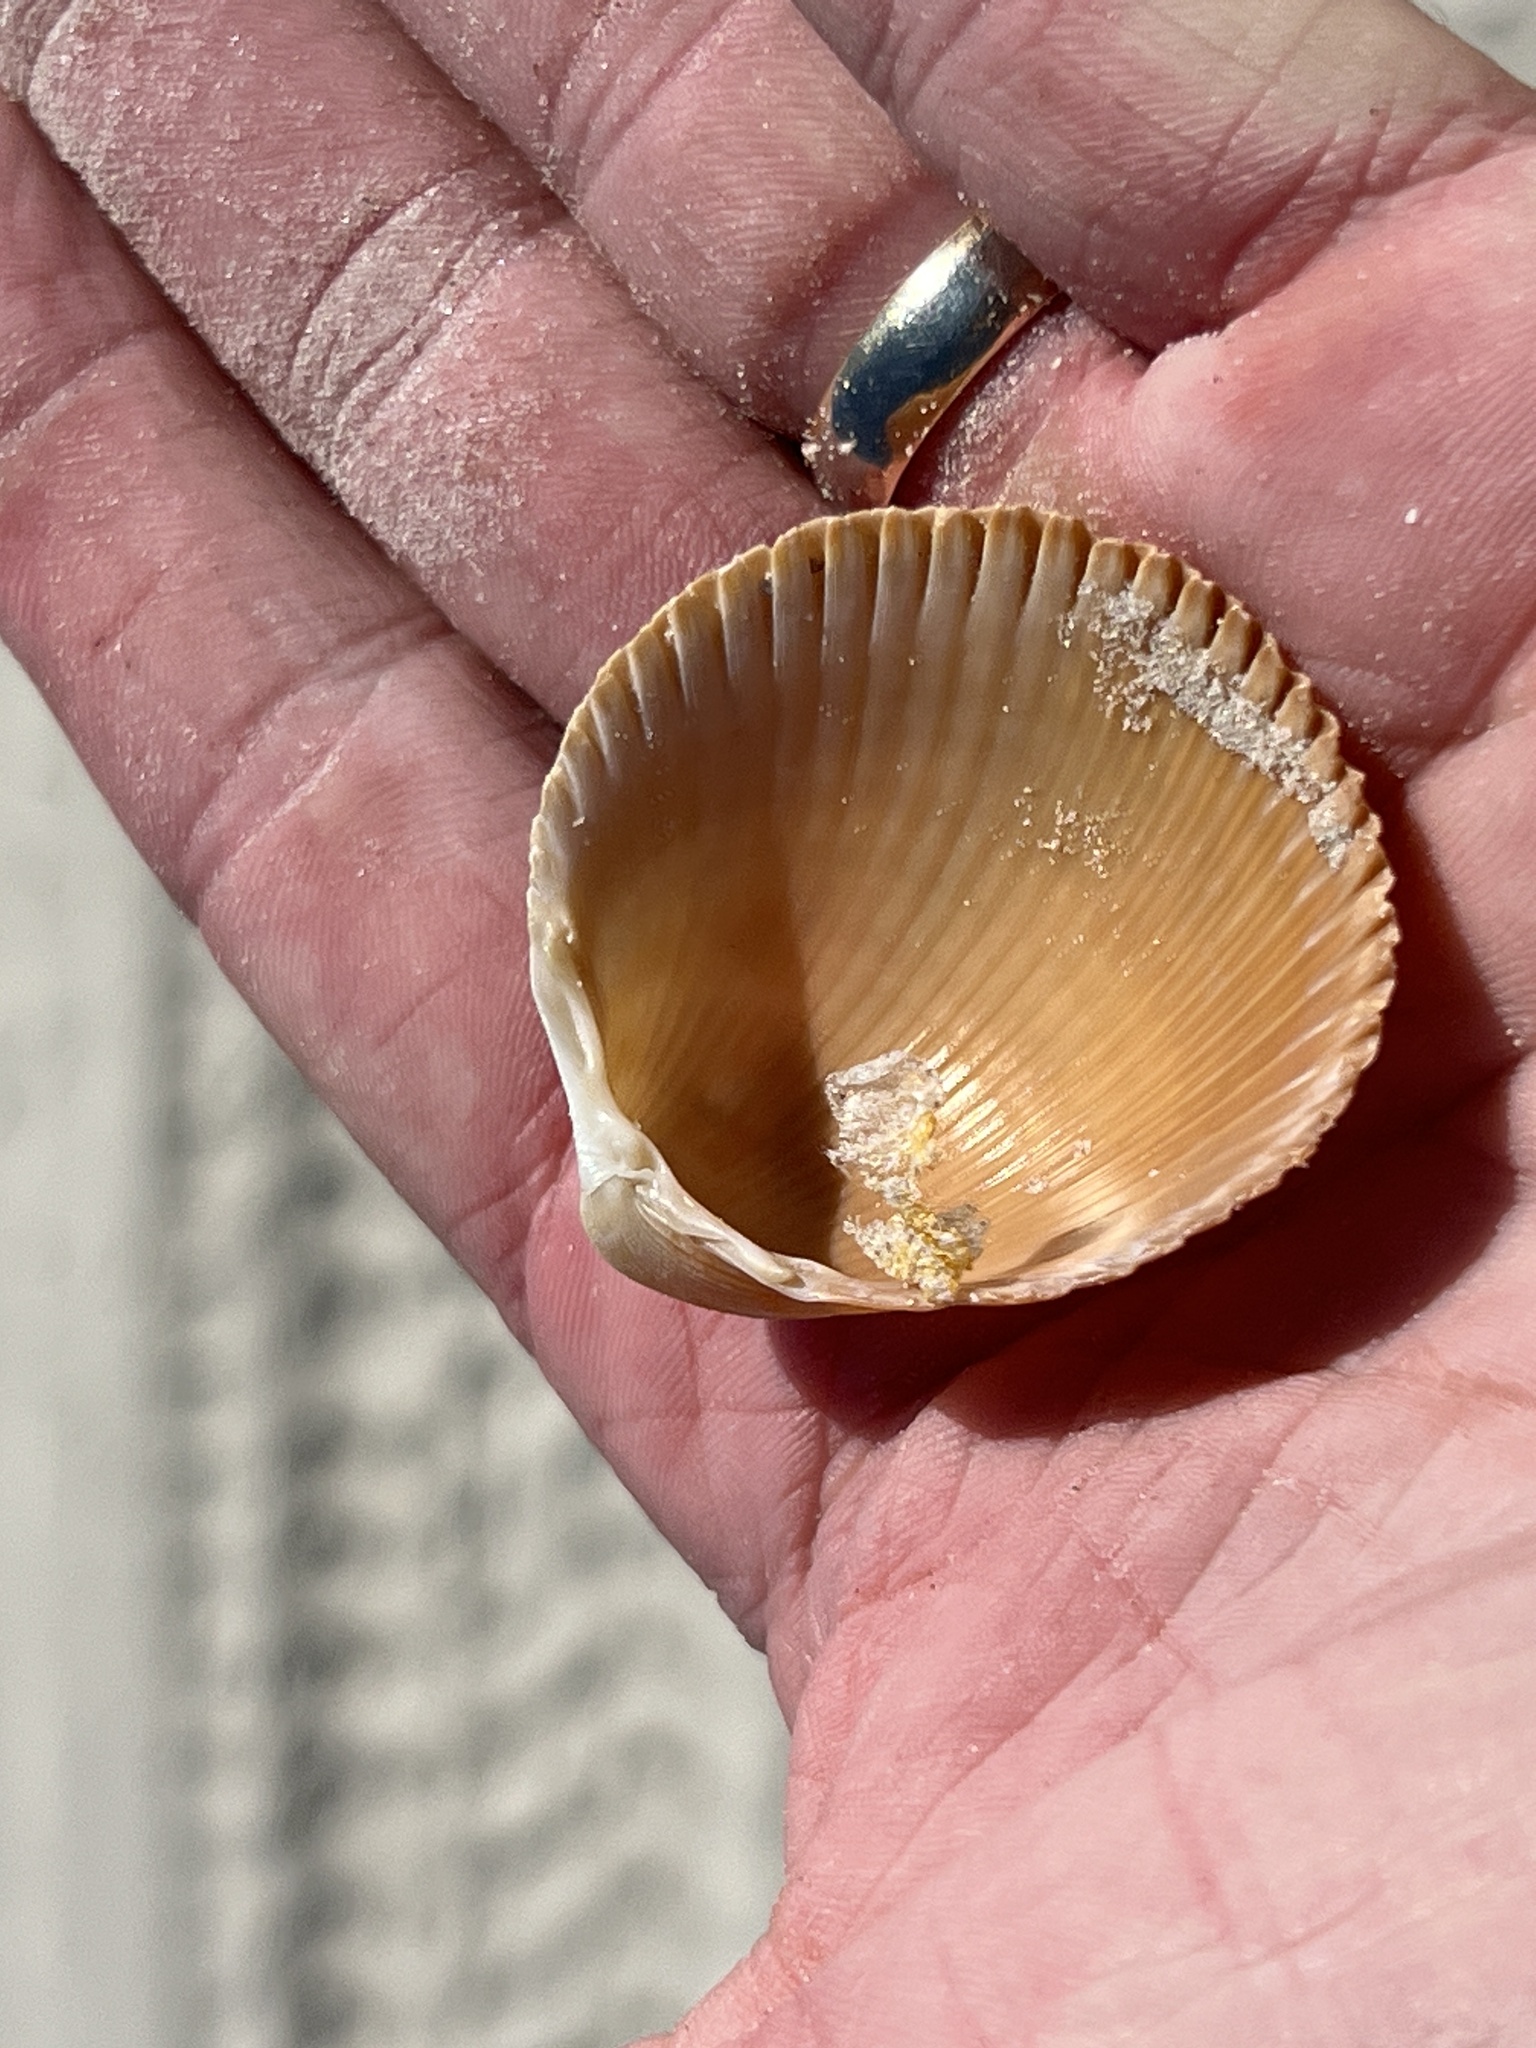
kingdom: Animalia
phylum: Mollusca
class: Bivalvia
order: Cardiida
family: Cardiidae
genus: Dinocardium
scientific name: Dinocardium robustum
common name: Atlantic giant cockle
